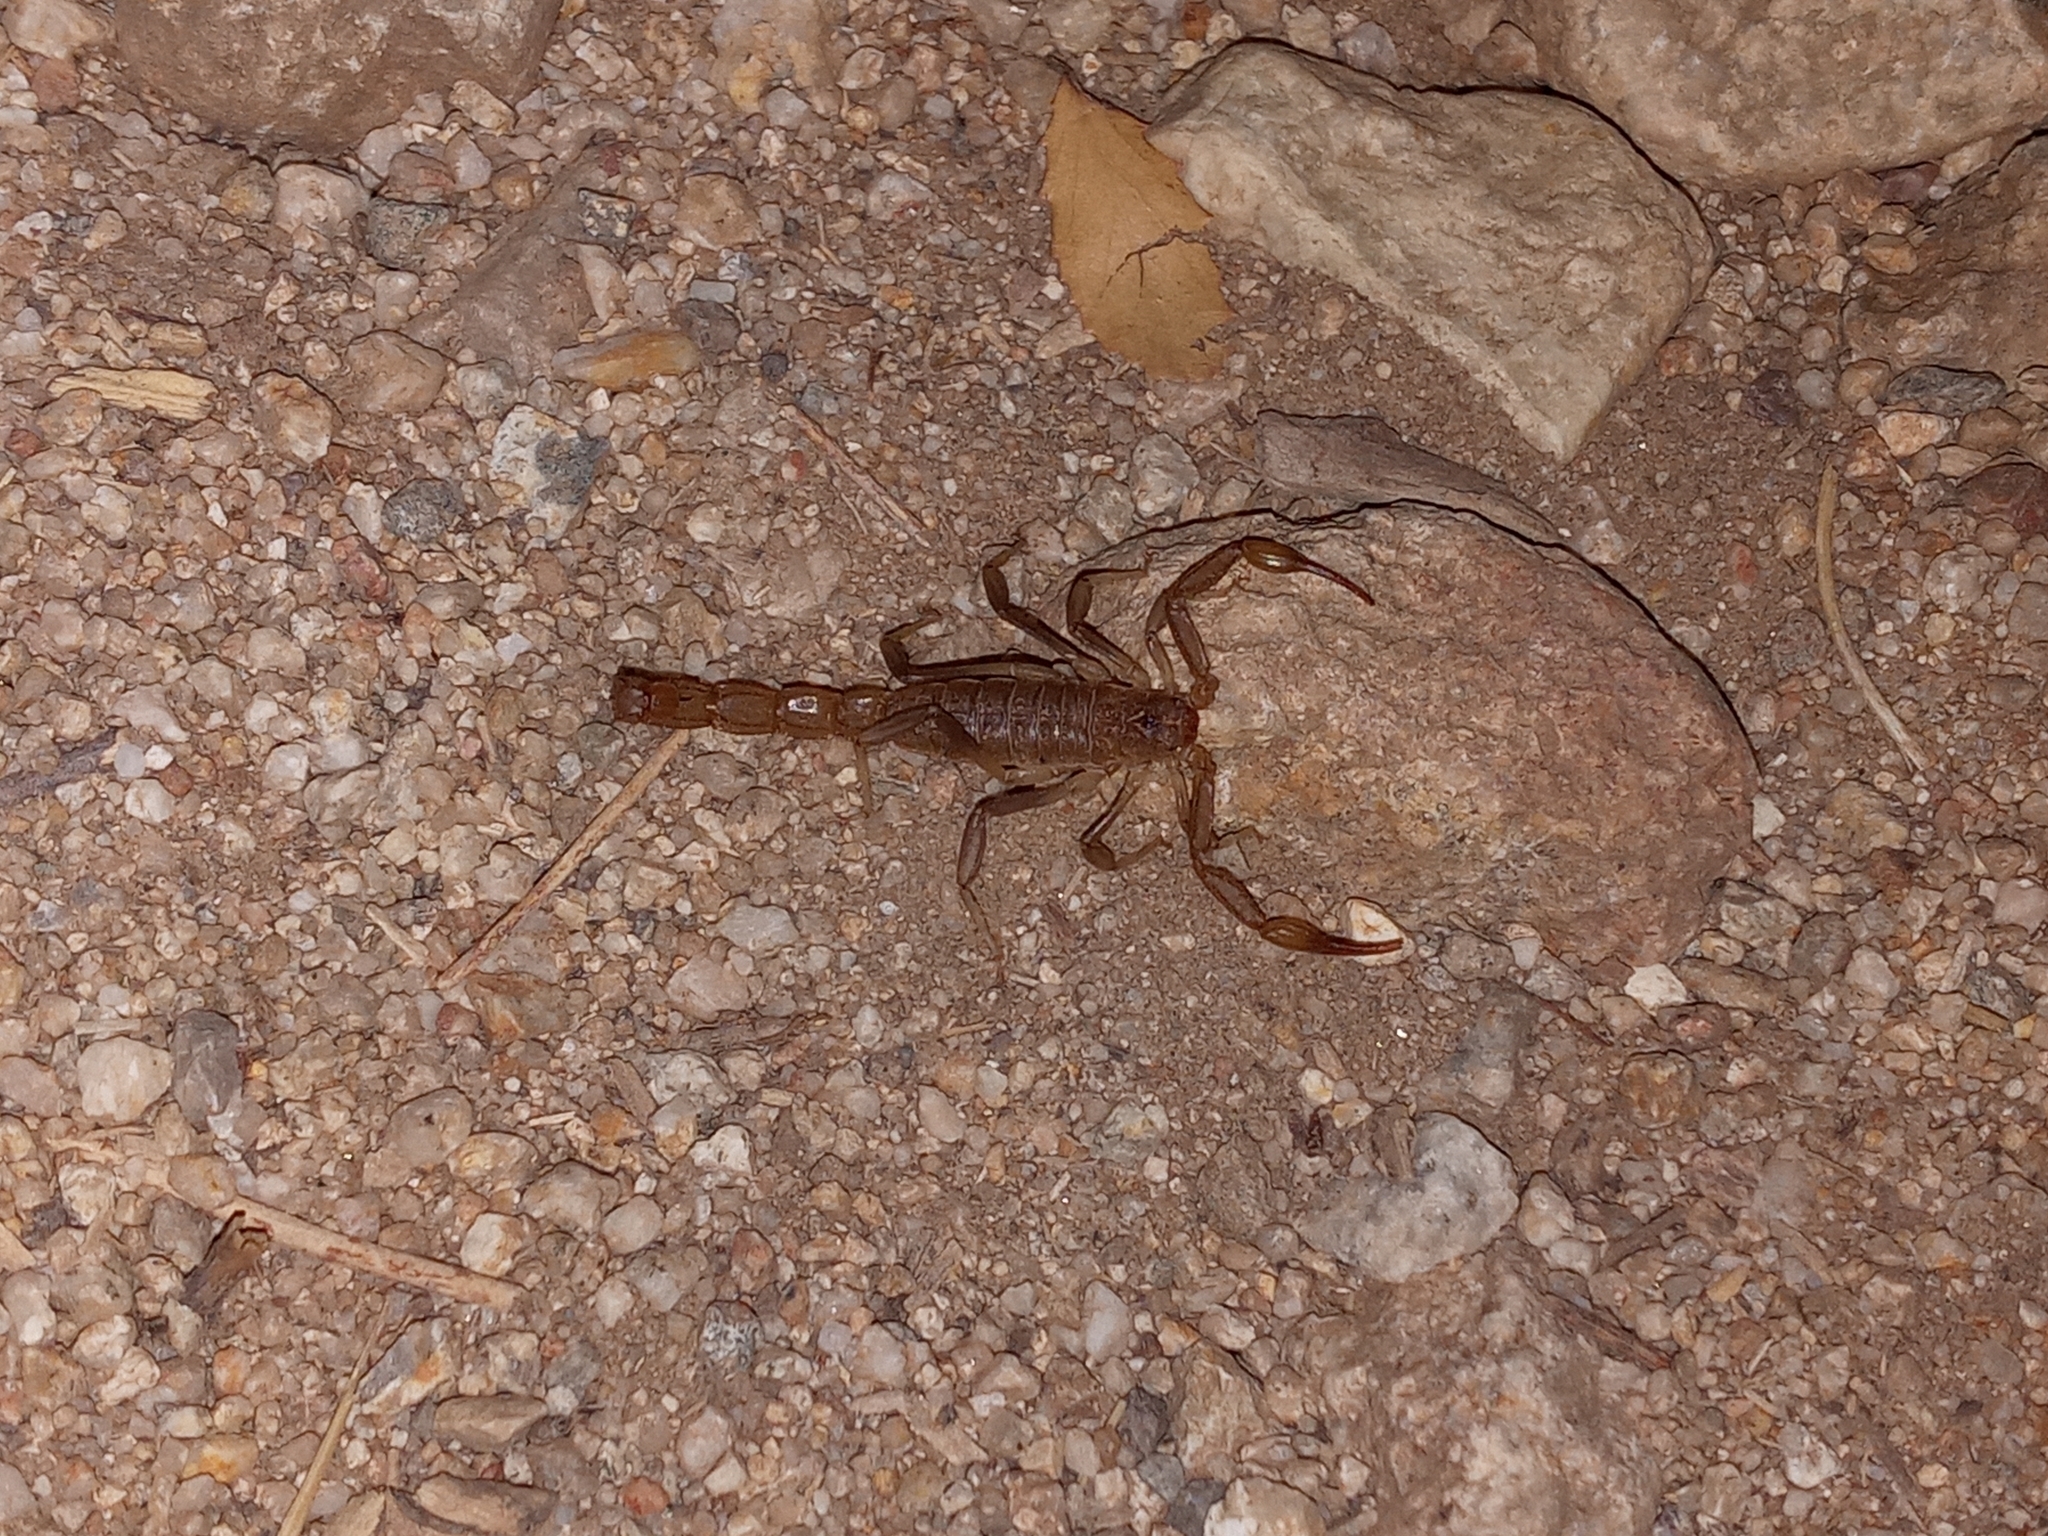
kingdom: Animalia
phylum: Arthropoda
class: Arachnida
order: Scorpiones
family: Vaejovidae
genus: Paravaejovis
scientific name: Paravaejovis puritanus
